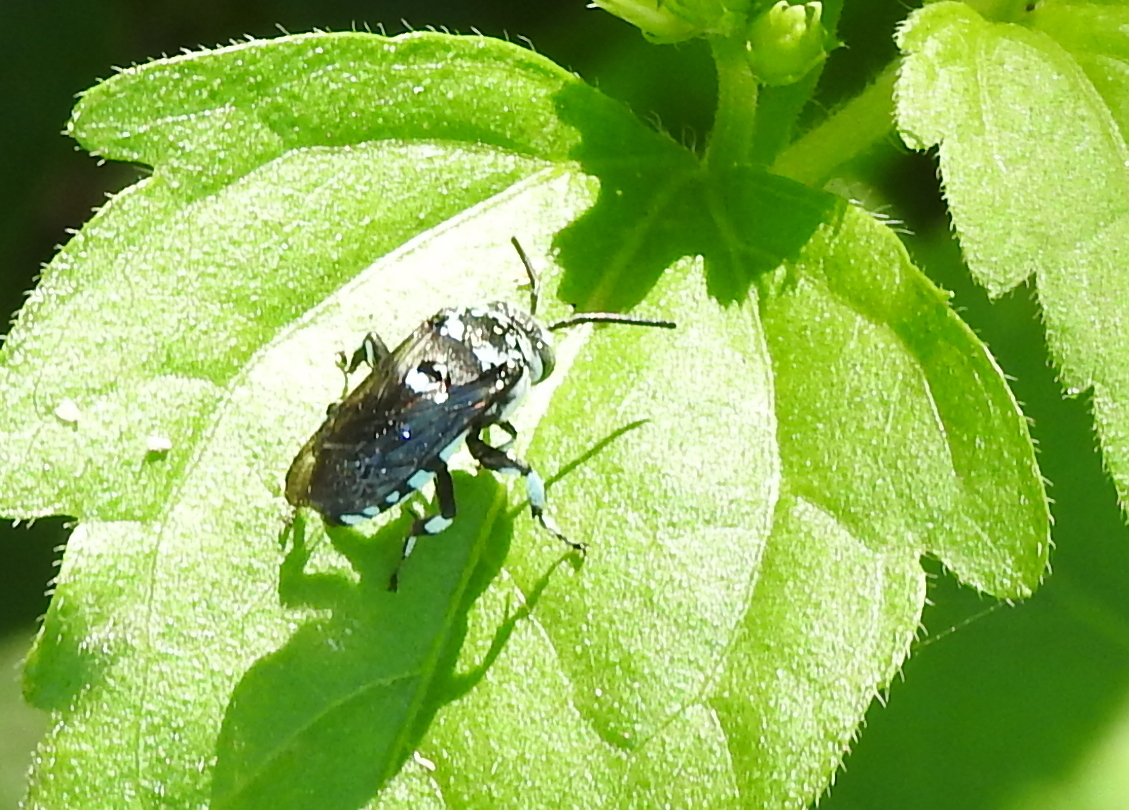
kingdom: Animalia
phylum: Arthropoda
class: Insecta
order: Hymenoptera
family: Apidae
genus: Thyreus
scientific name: Thyreus himalayensis
